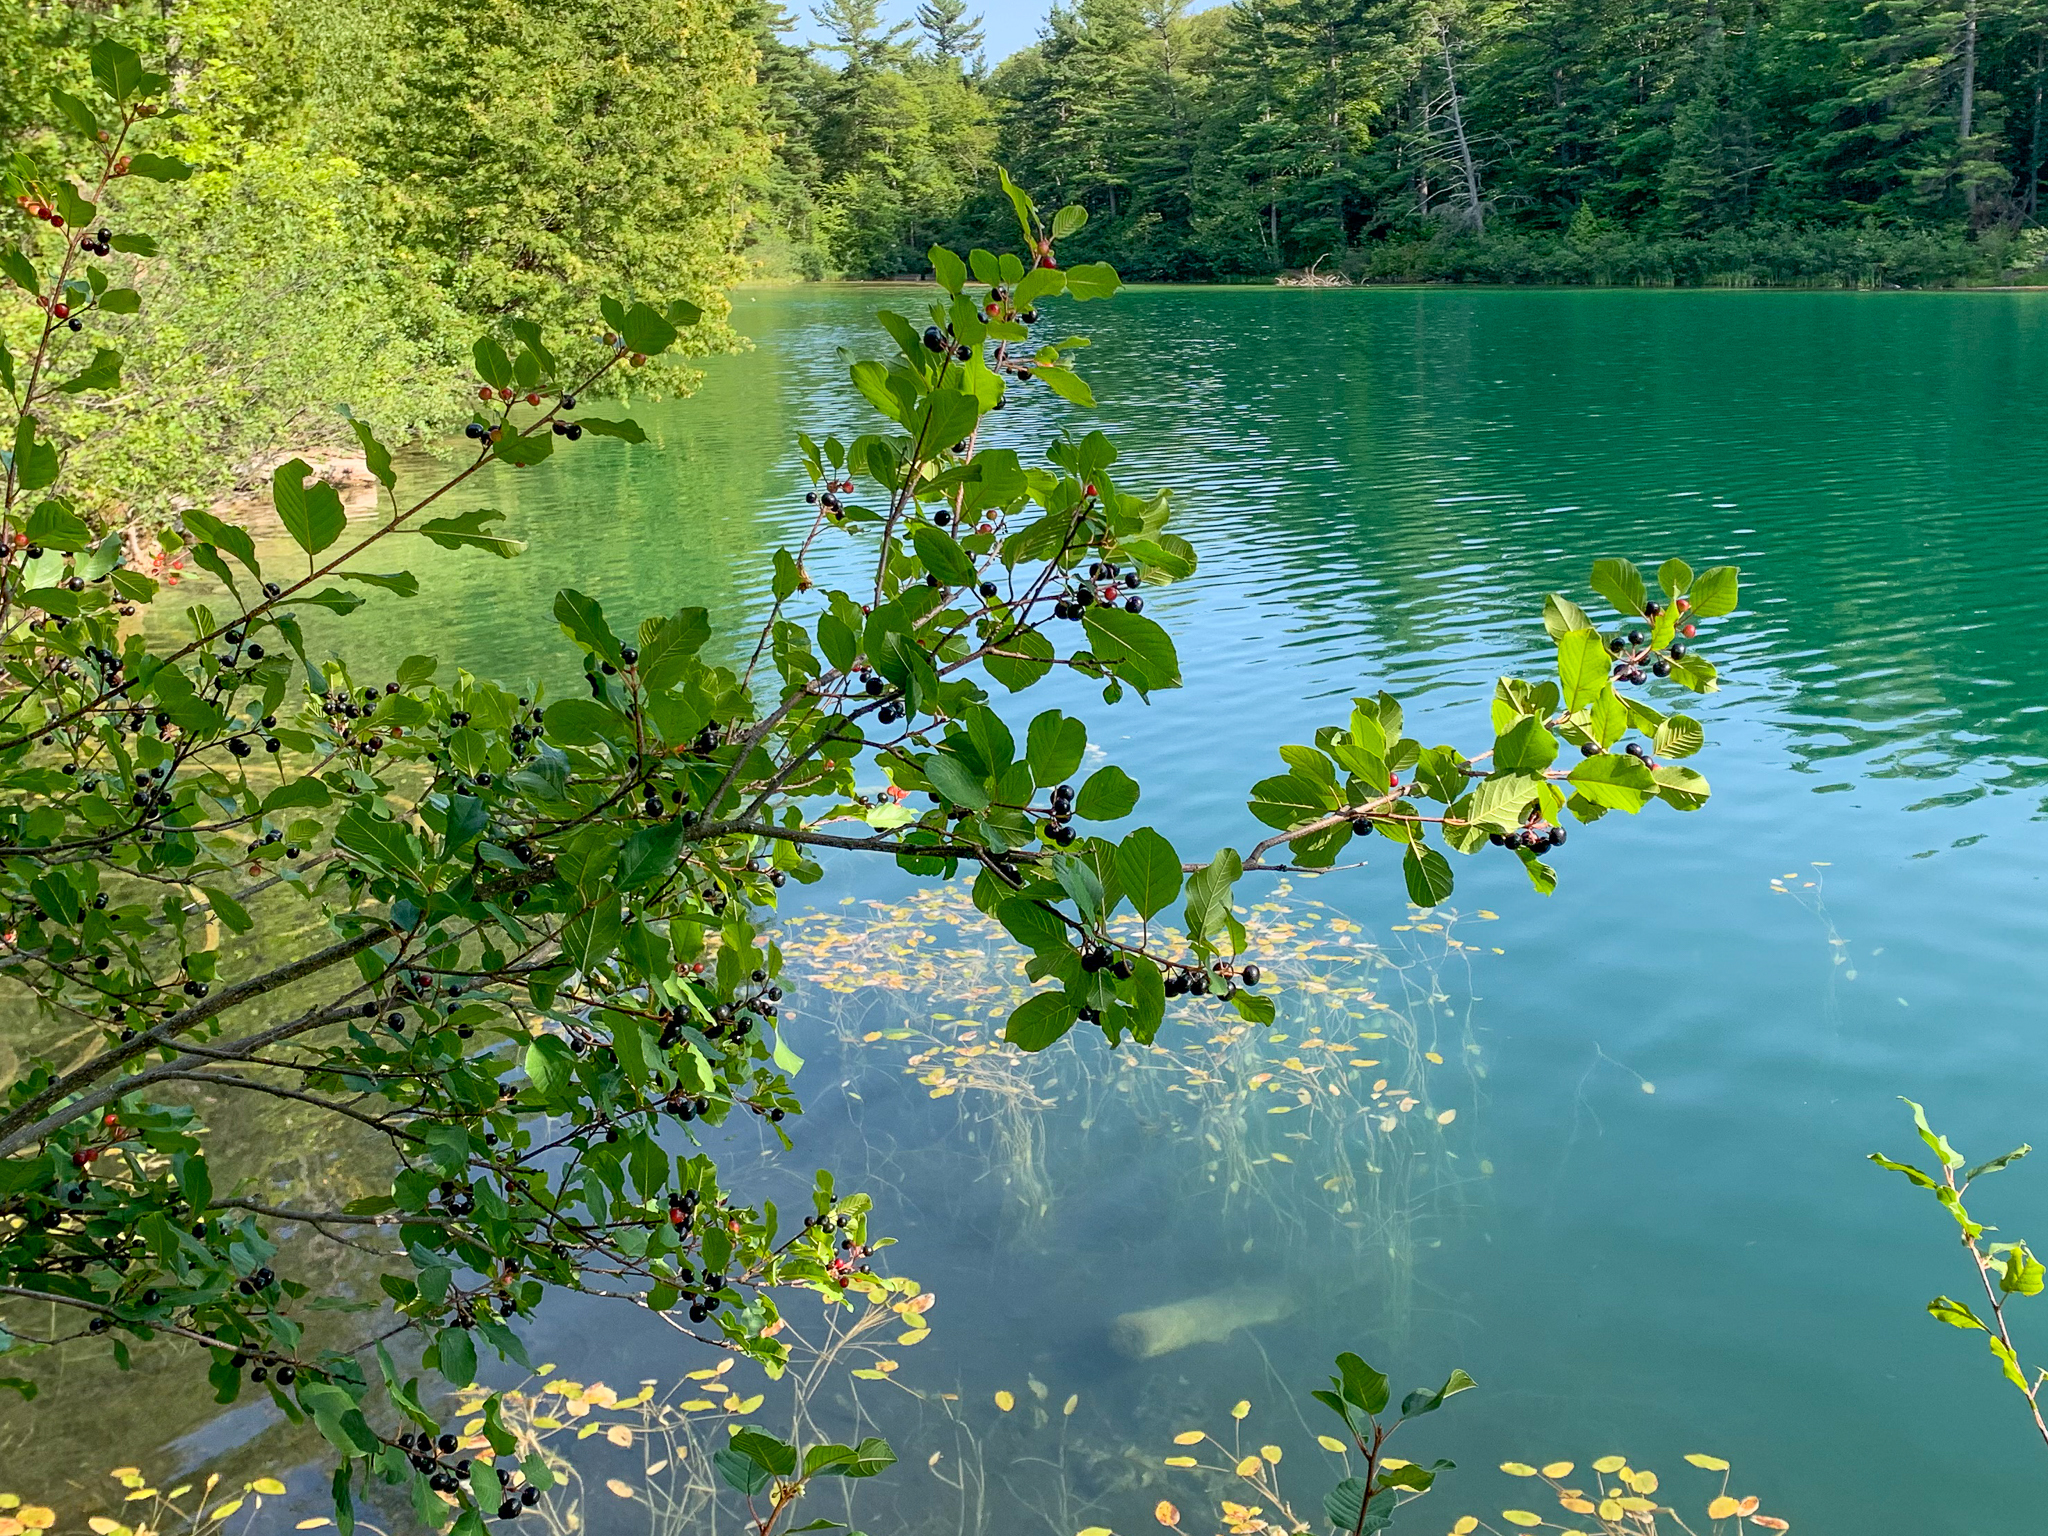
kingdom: Plantae
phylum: Tracheophyta
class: Magnoliopsida
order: Rosales
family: Rhamnaceae
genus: Frangula
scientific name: Frangula alnus
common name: Alder buckthorn
